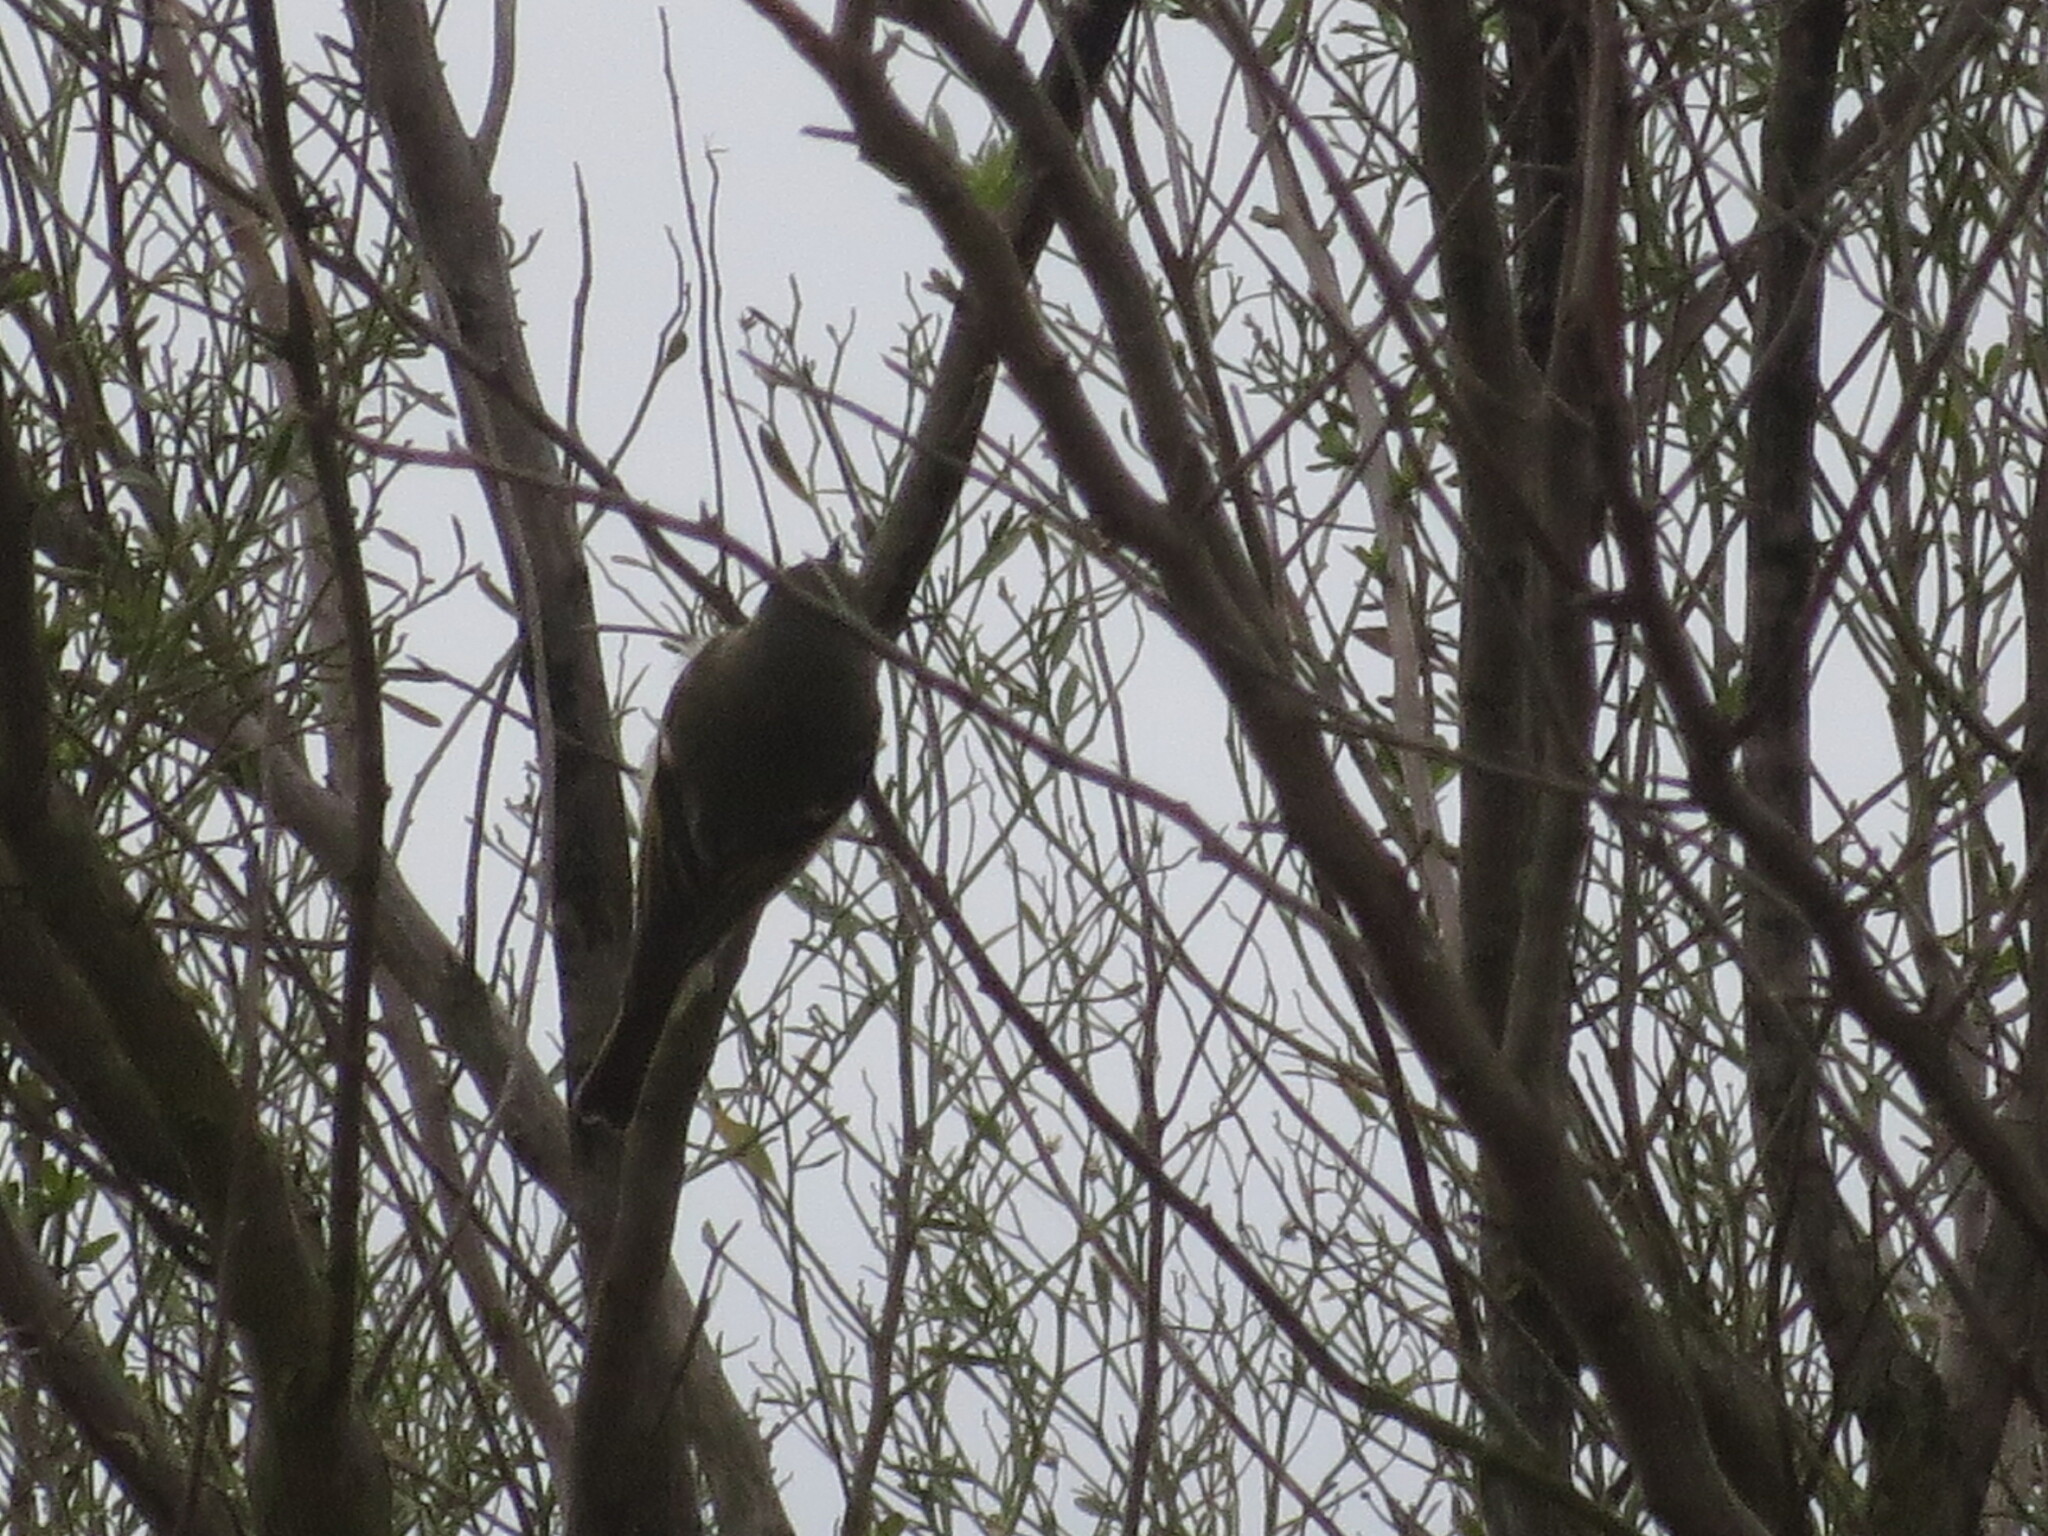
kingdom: Animalia
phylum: Chordata
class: Aves
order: Passeriformes
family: Regulidae
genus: Regulus
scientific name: Regulus calendula
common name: Ruby-crowned kinglet
